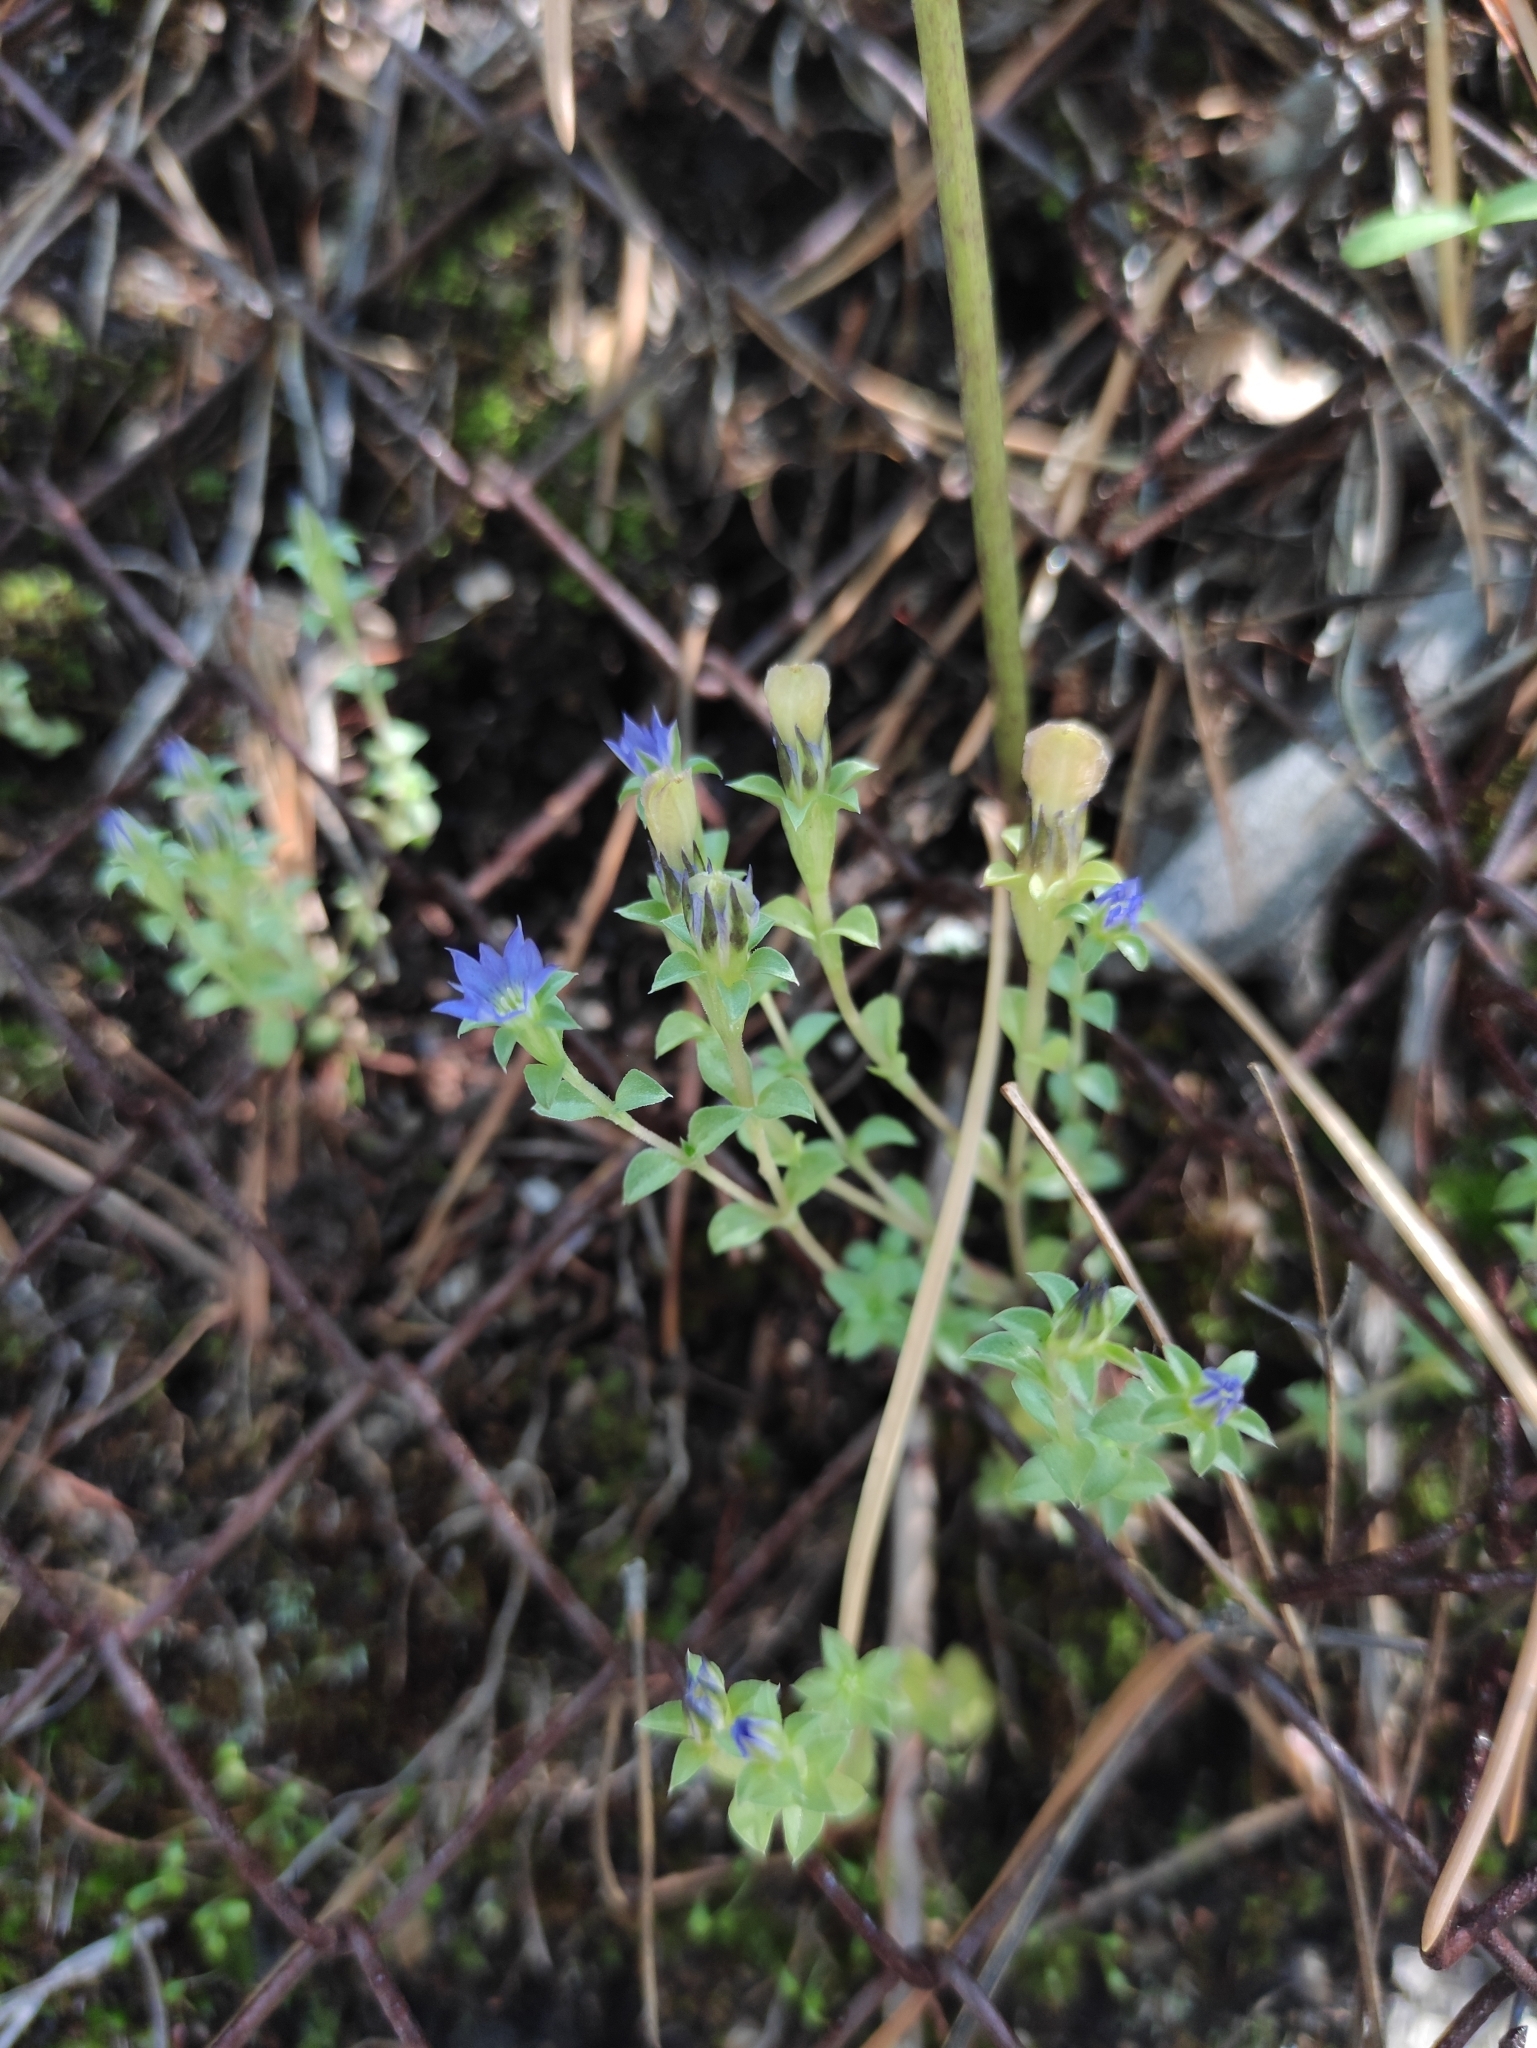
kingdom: Plantae
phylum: Tracheophyta
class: Magnoliopsida
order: Gentianales
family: Gentianaceae
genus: Gentiana
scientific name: Gentiana squarrosa
